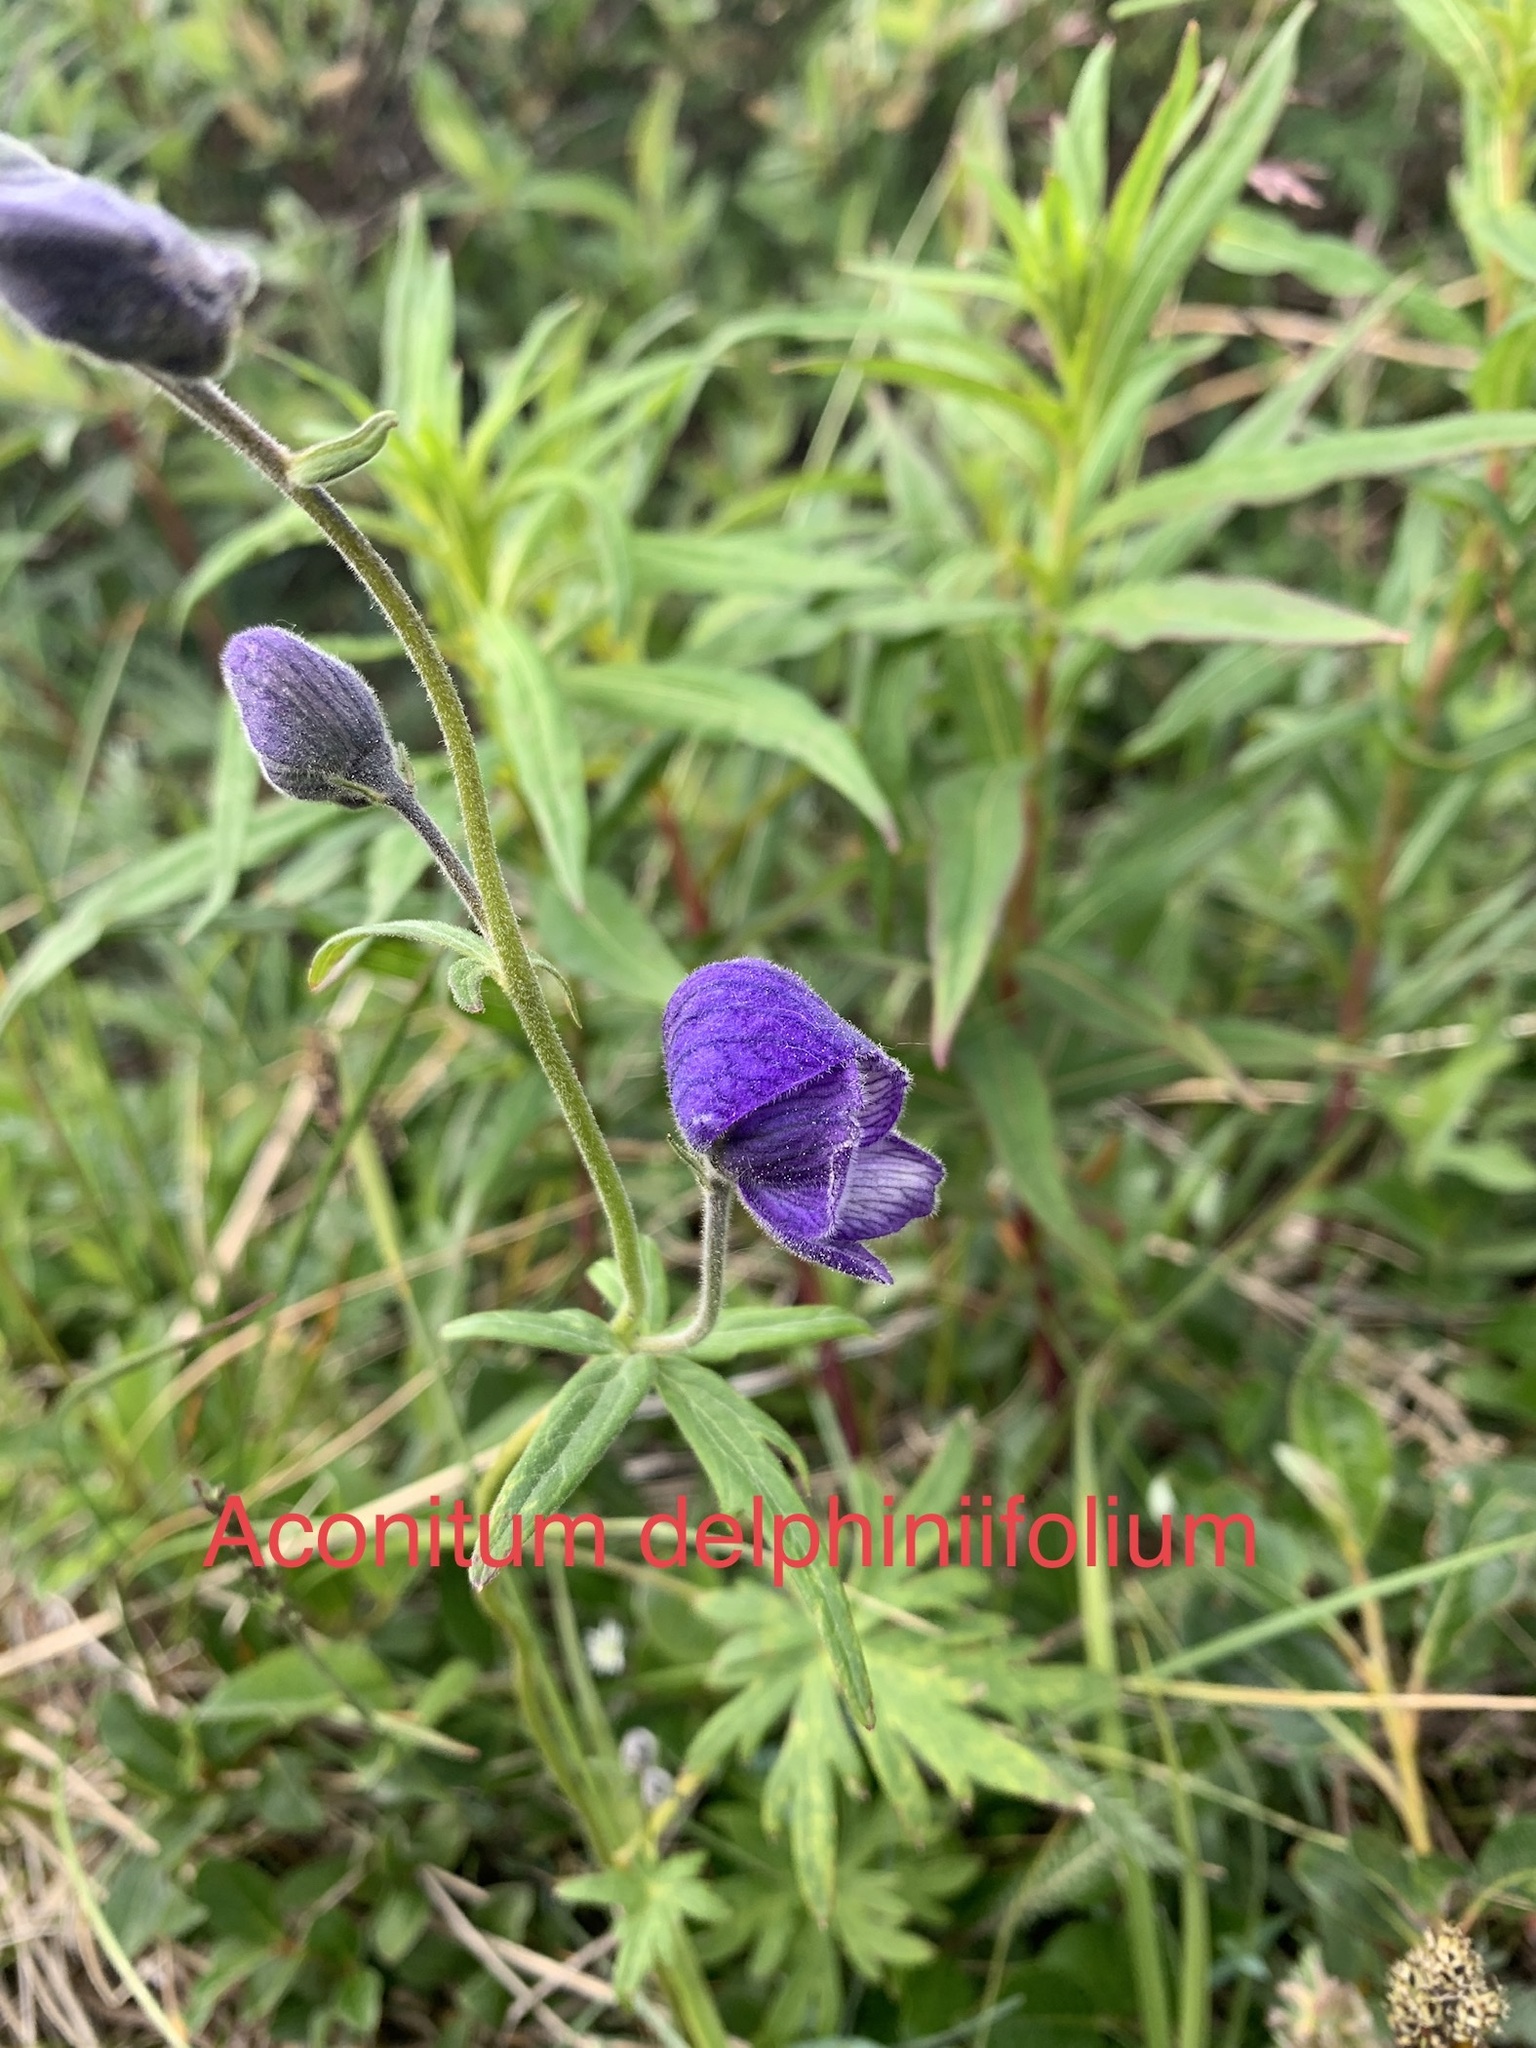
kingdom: Plantae
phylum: Tracheophyta
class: Magnoliopsida
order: Ranunculales
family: Ranunculaceae
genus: Aconitum
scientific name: Aconitum delphiniifolium
